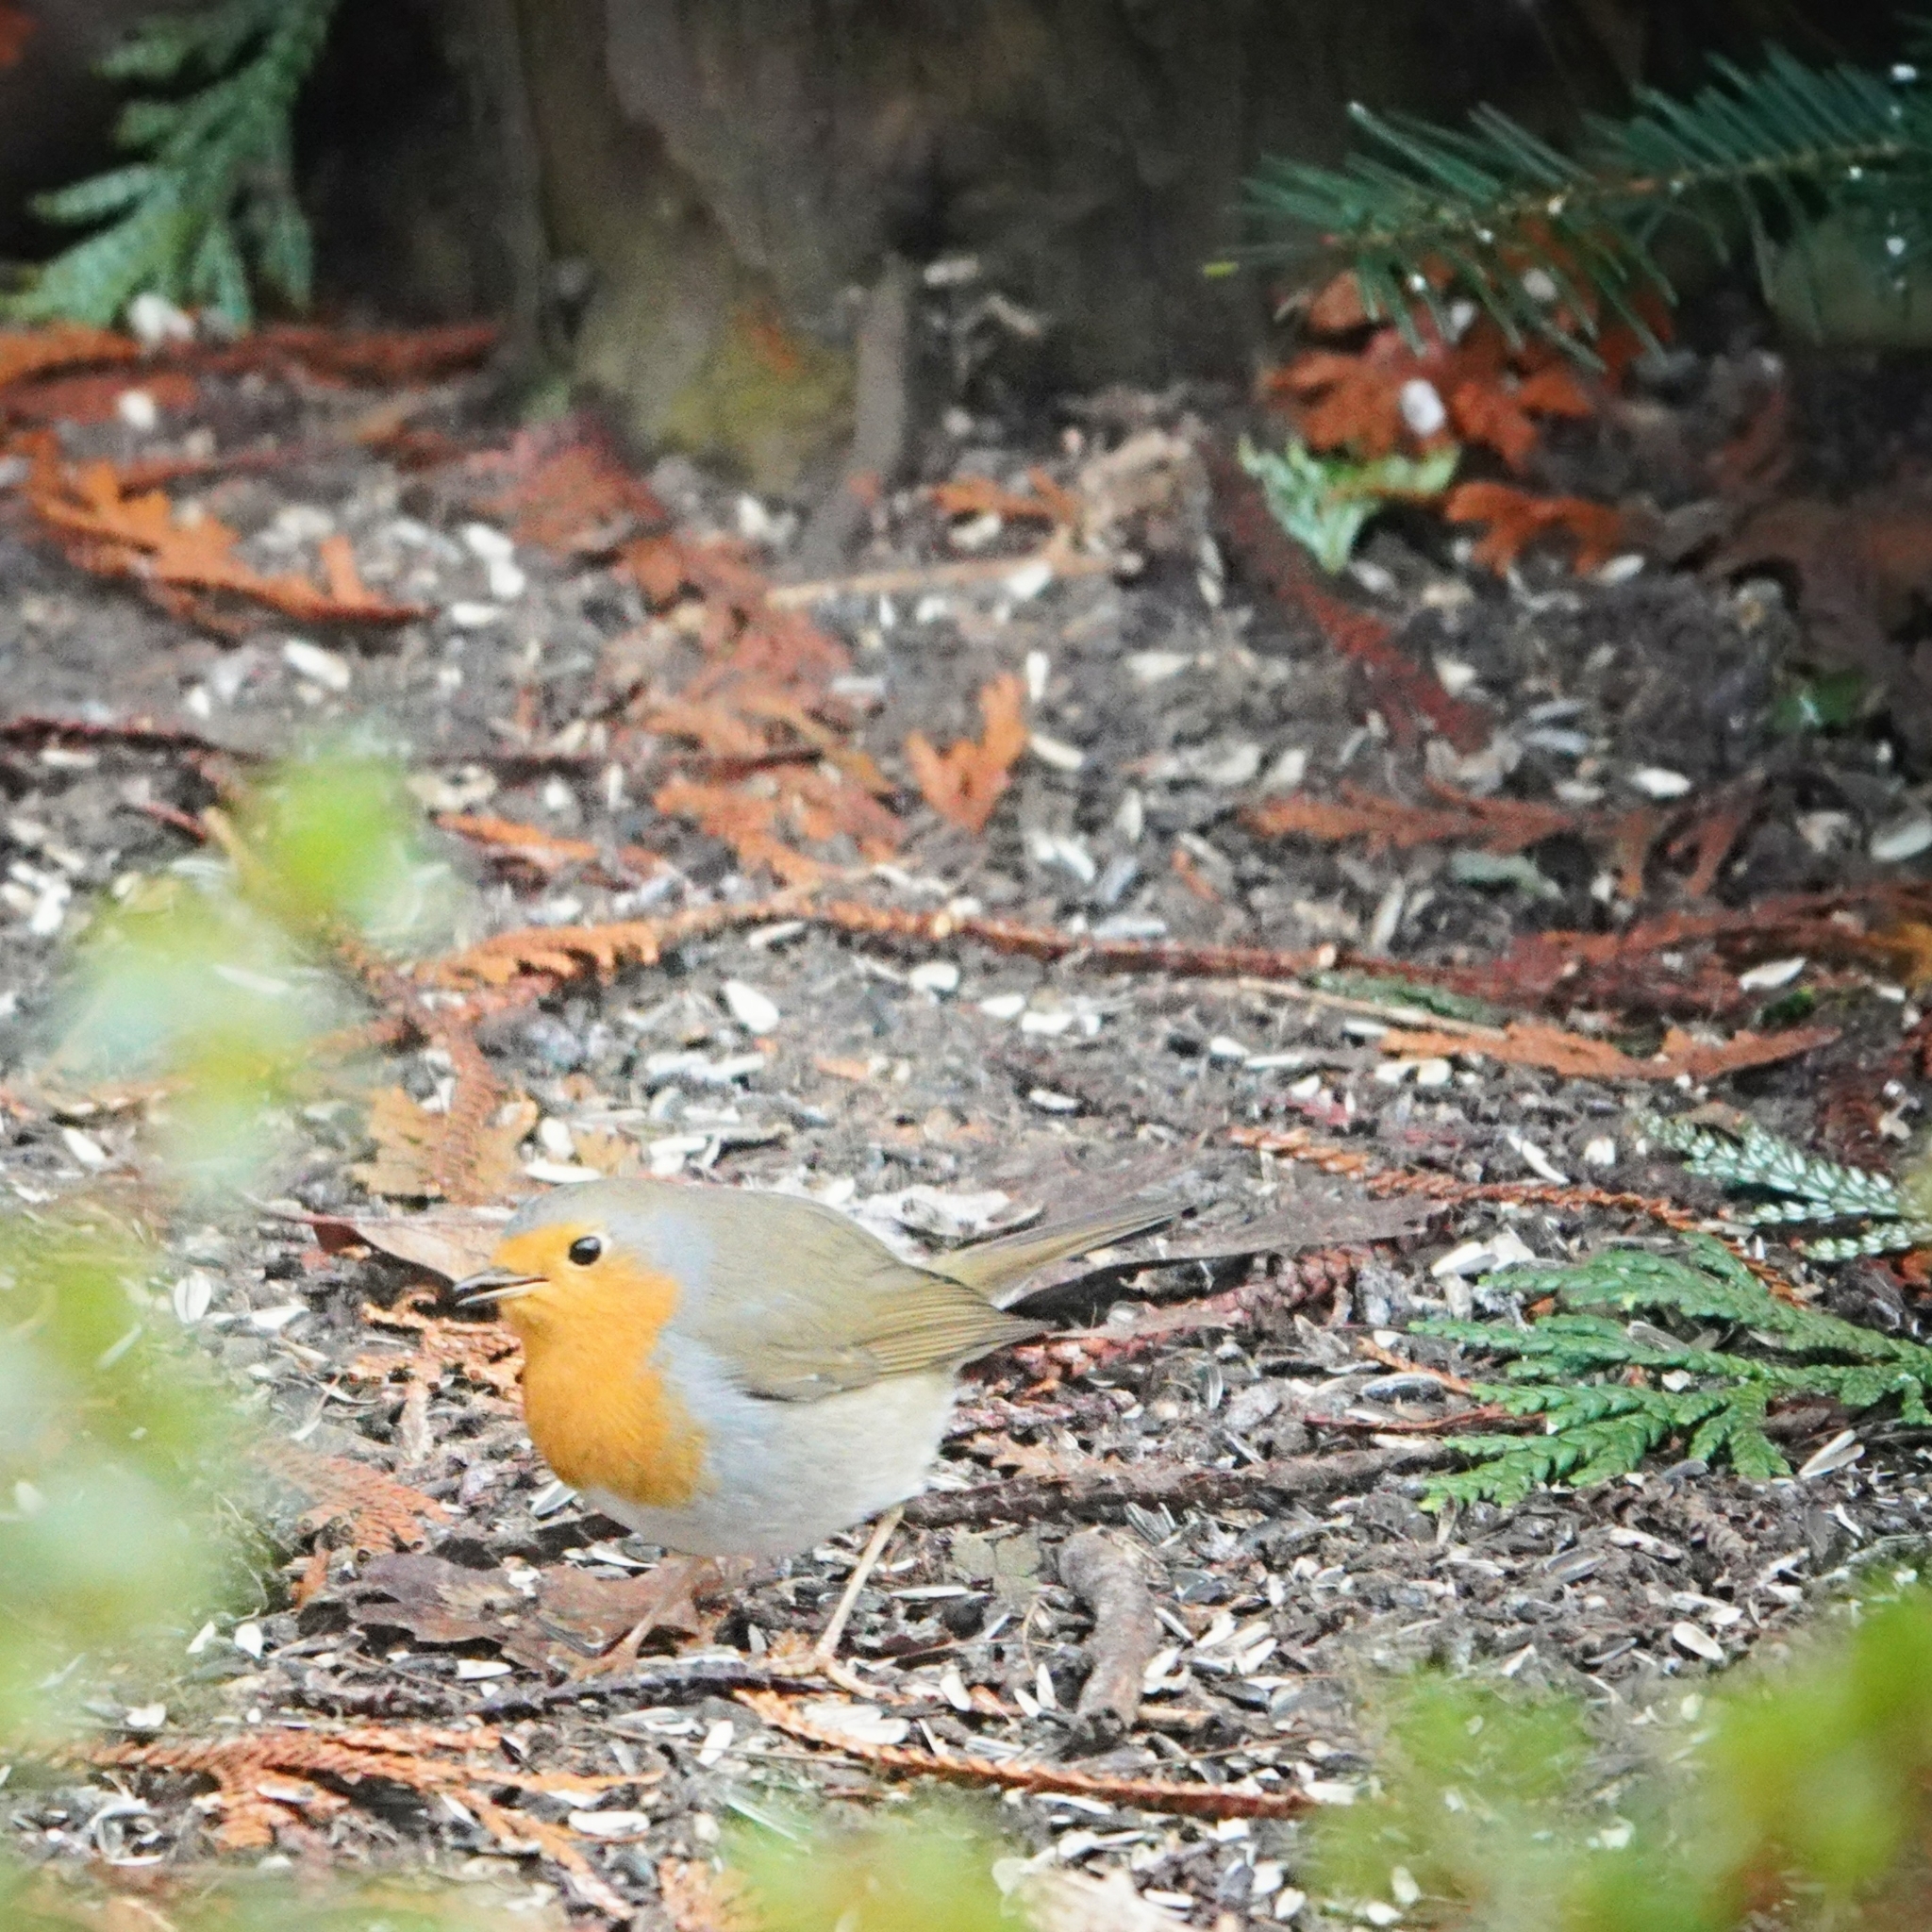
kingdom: Animalia
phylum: Chordata
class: Aves
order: Passeriformes
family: Muscicapidae
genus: Erithacus
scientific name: Erithacus rubecula
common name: European robin
